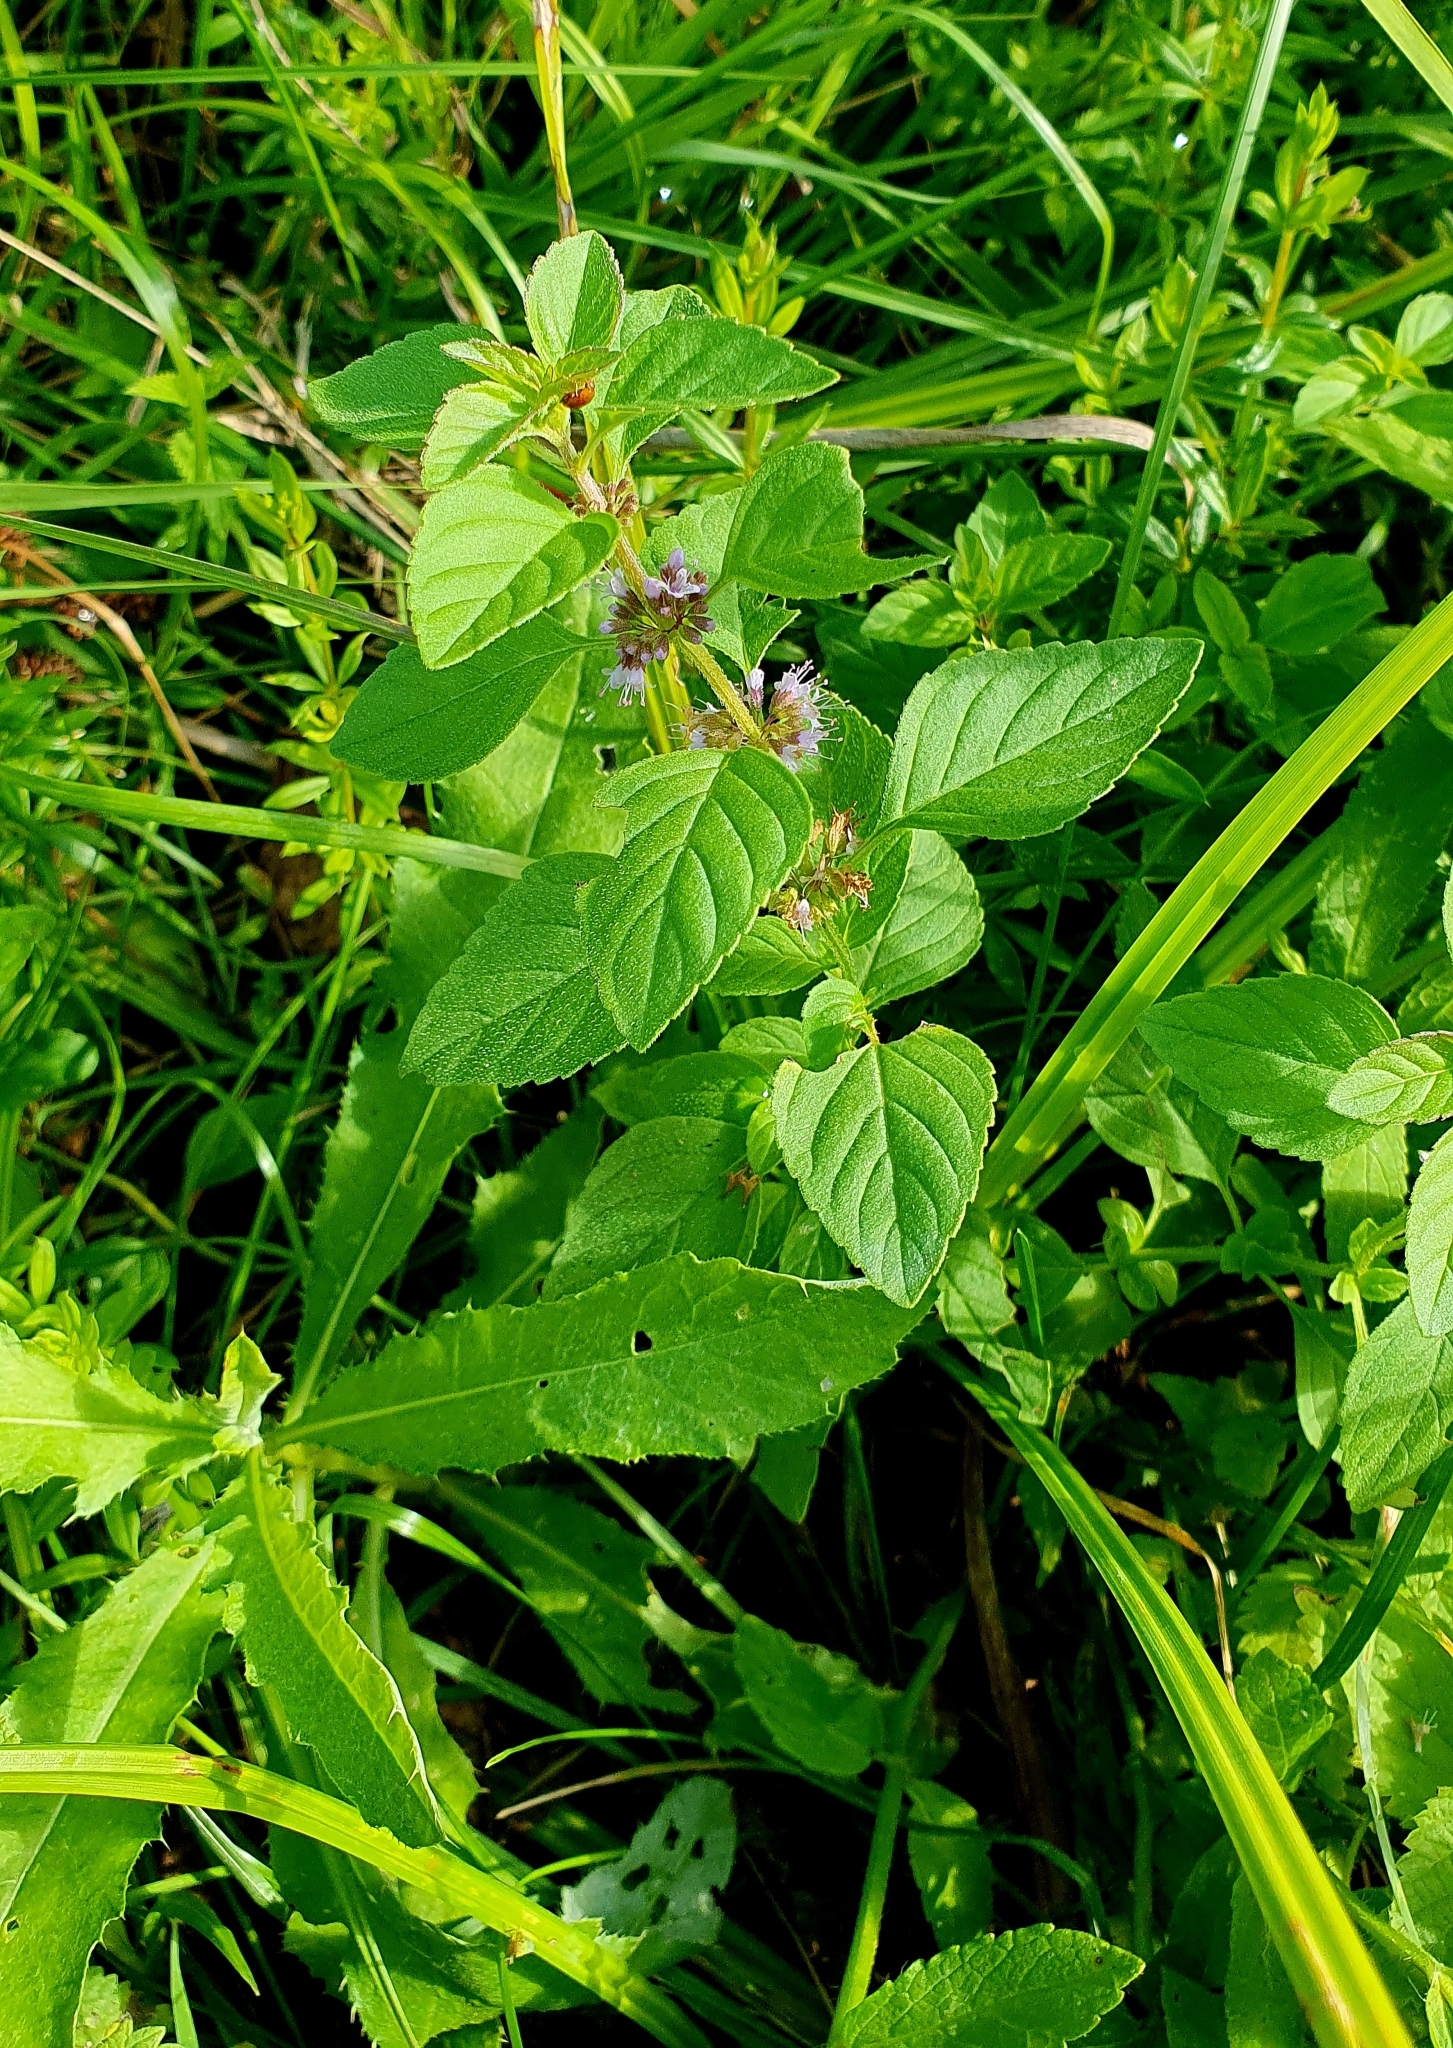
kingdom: Plantae
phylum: Tracheophyta
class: Magnoliopsida
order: Lamiales
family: Lamiaceae
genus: Mentha
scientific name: Mentha arvensis
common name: Corn mint
